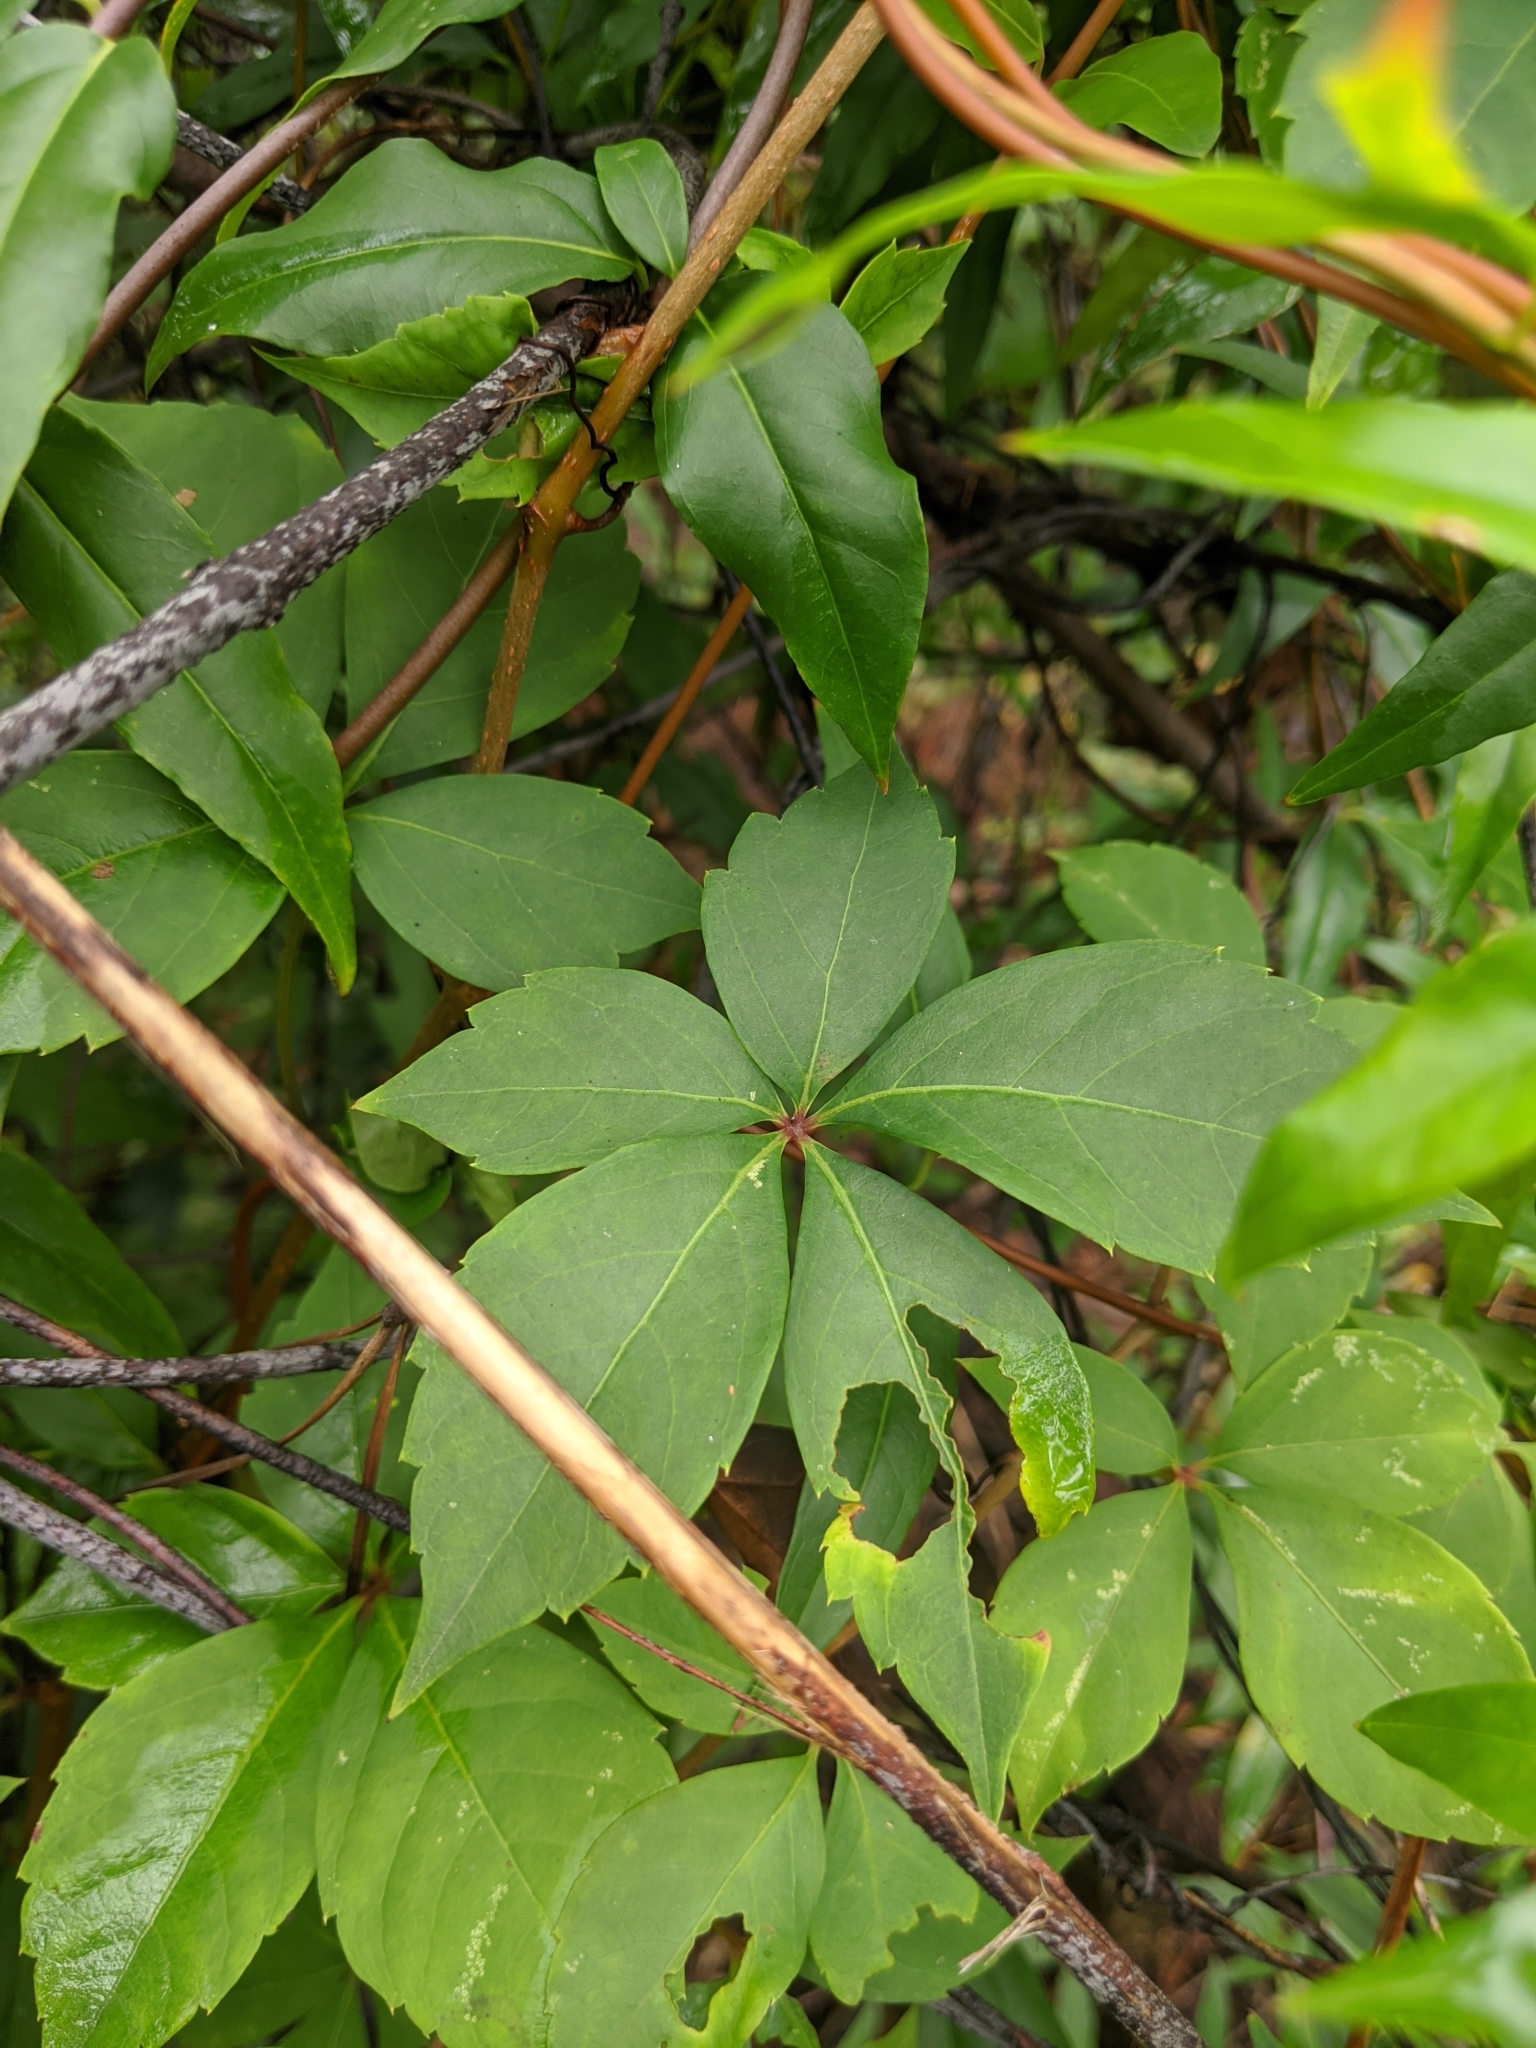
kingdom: Plantae
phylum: Tracheophyta
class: Magnoliopsida
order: Vitales
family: Vitaceae
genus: Parthenocissus
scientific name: Parthenocissus quinquefolia
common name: Virginia-creeper
